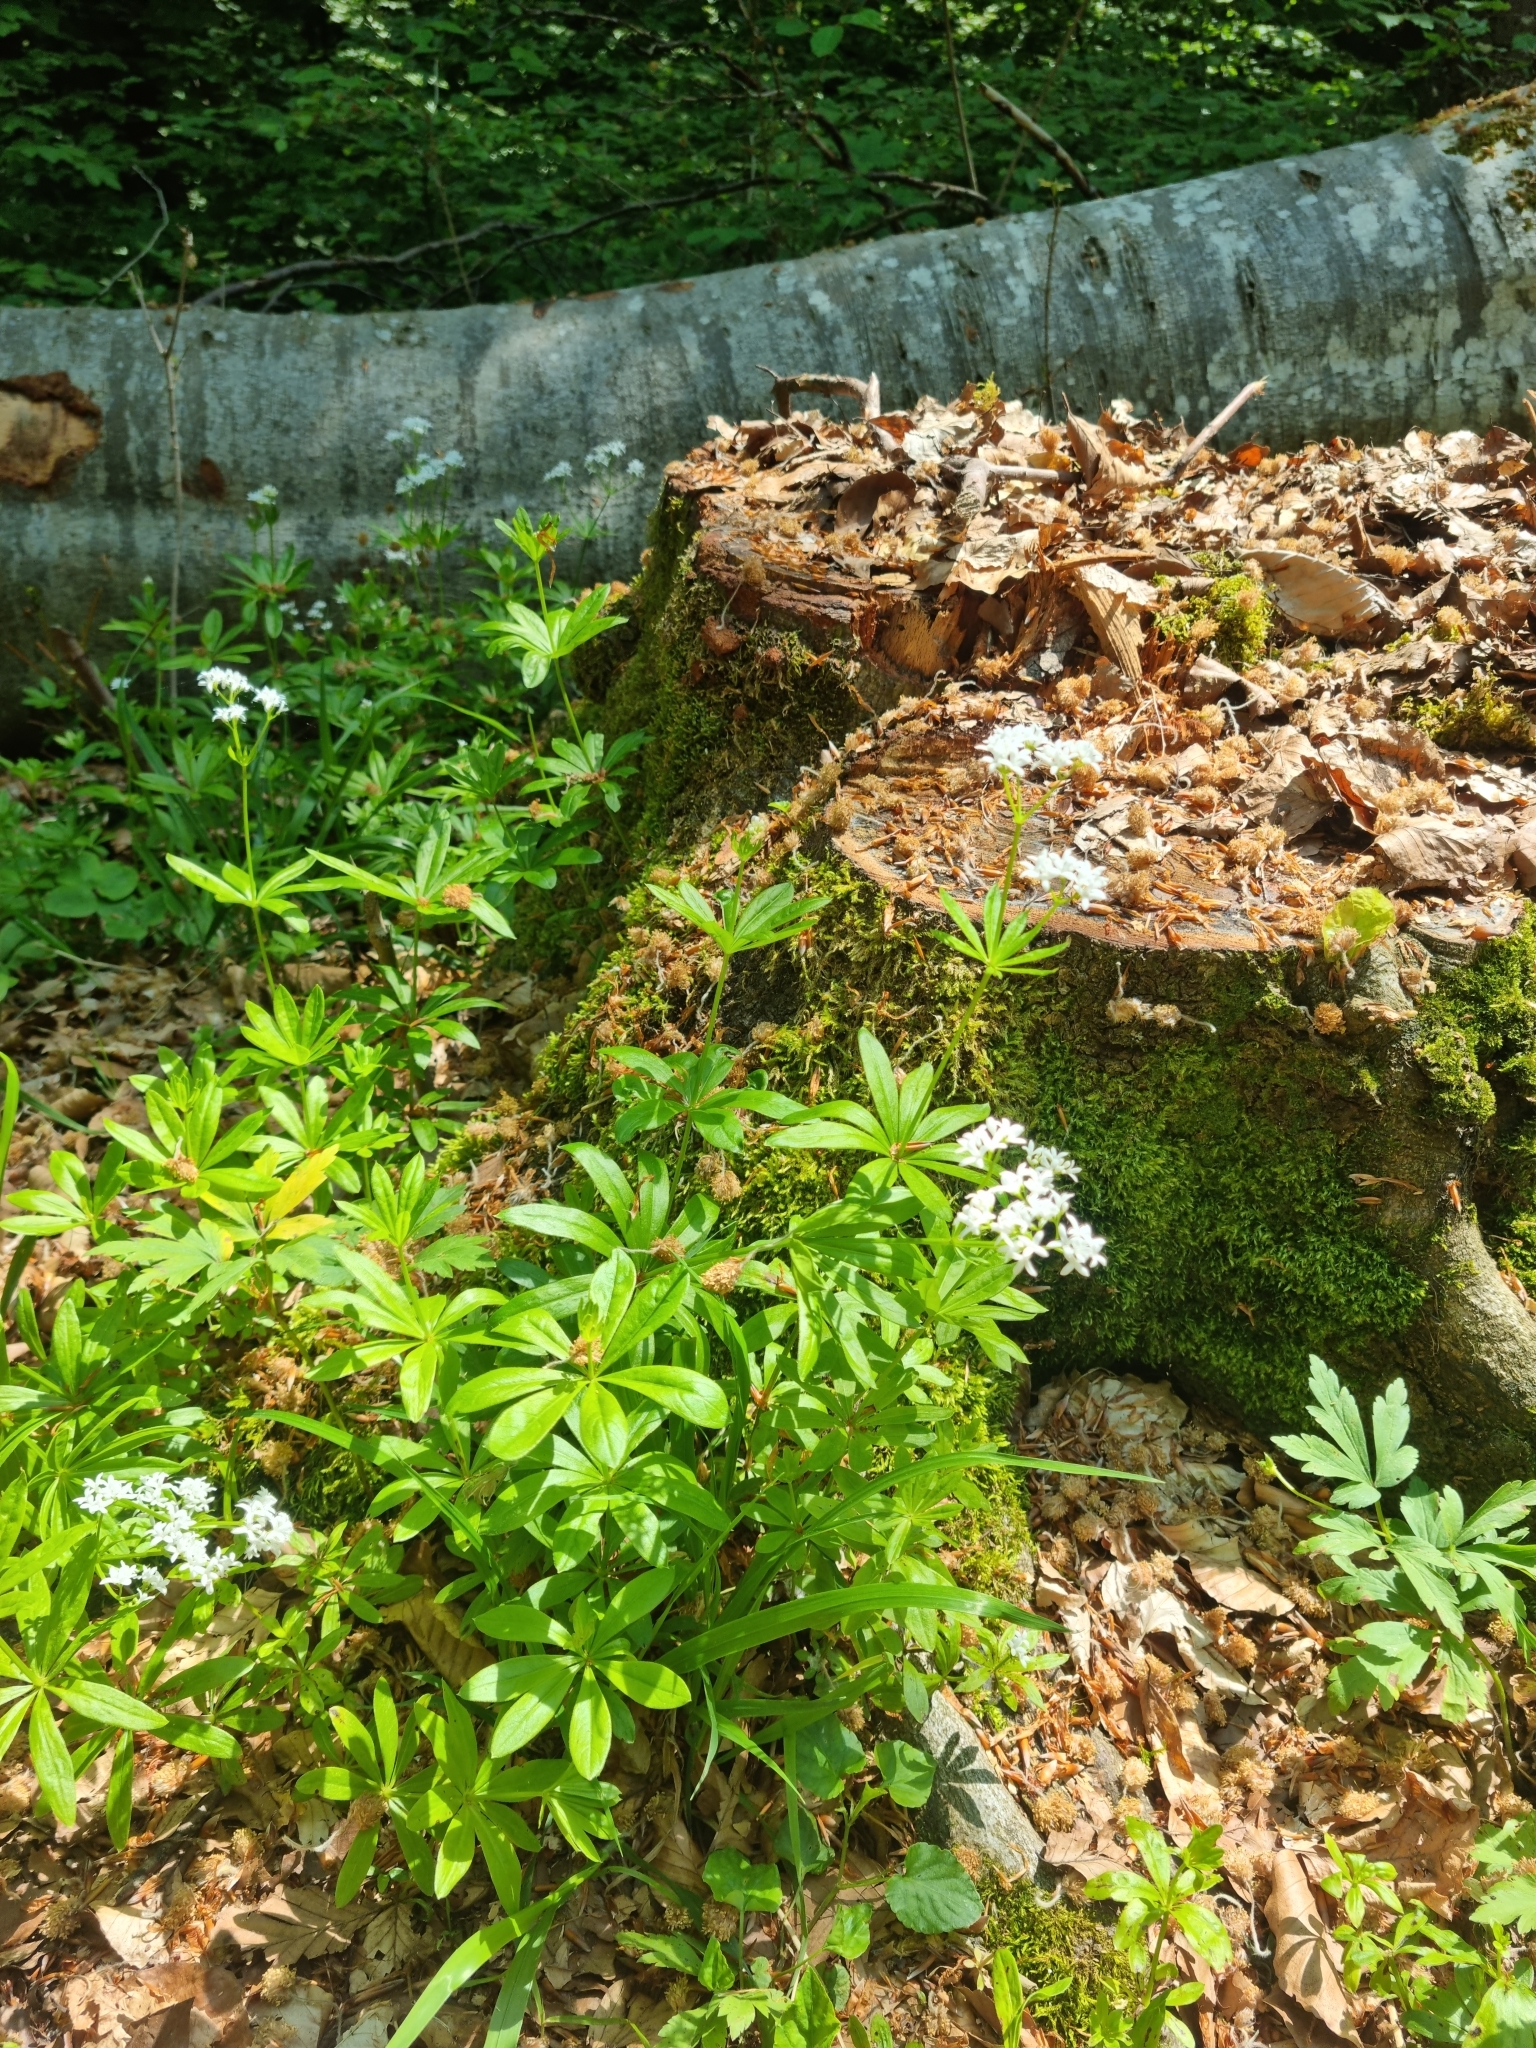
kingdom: Plantae
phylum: Tracheophyta
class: Magnoliopsida
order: Gentianales
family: Rubiaceae
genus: Galium
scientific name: Galium odoratum
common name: Sweet woodruff
